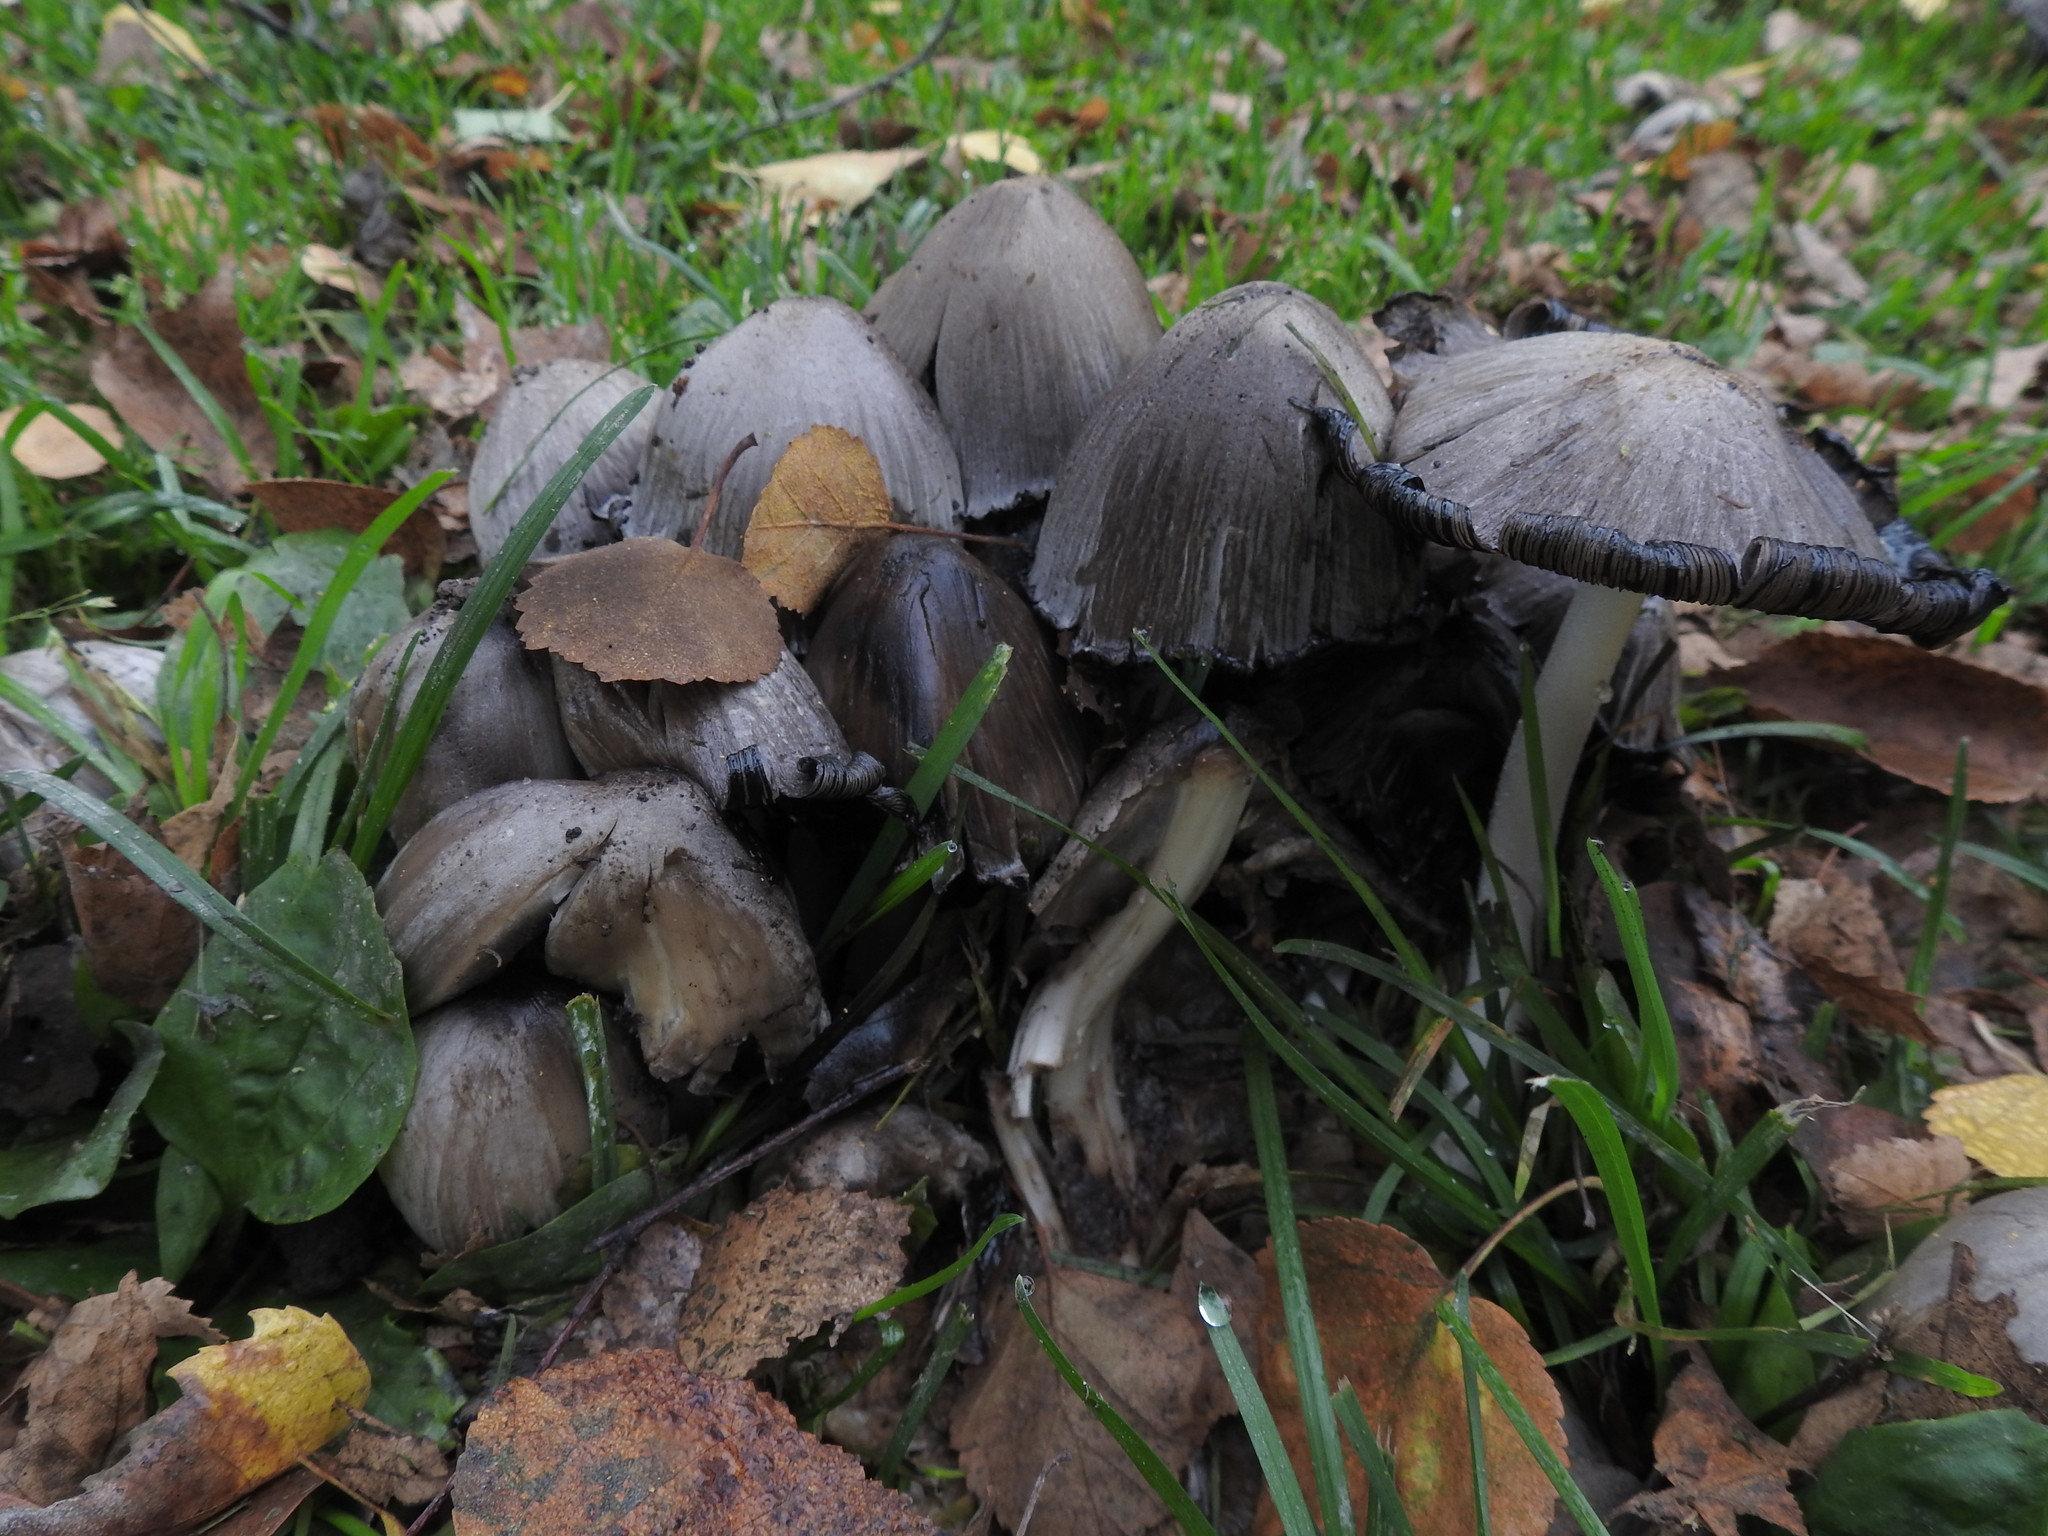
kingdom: Fungi
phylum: Basidiomycota
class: Agaricomycetes
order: Agaricales
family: Psathyrellaceae
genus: Coprinopsis
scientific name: Coprinopsis atramentaria
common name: Common ink-cap
